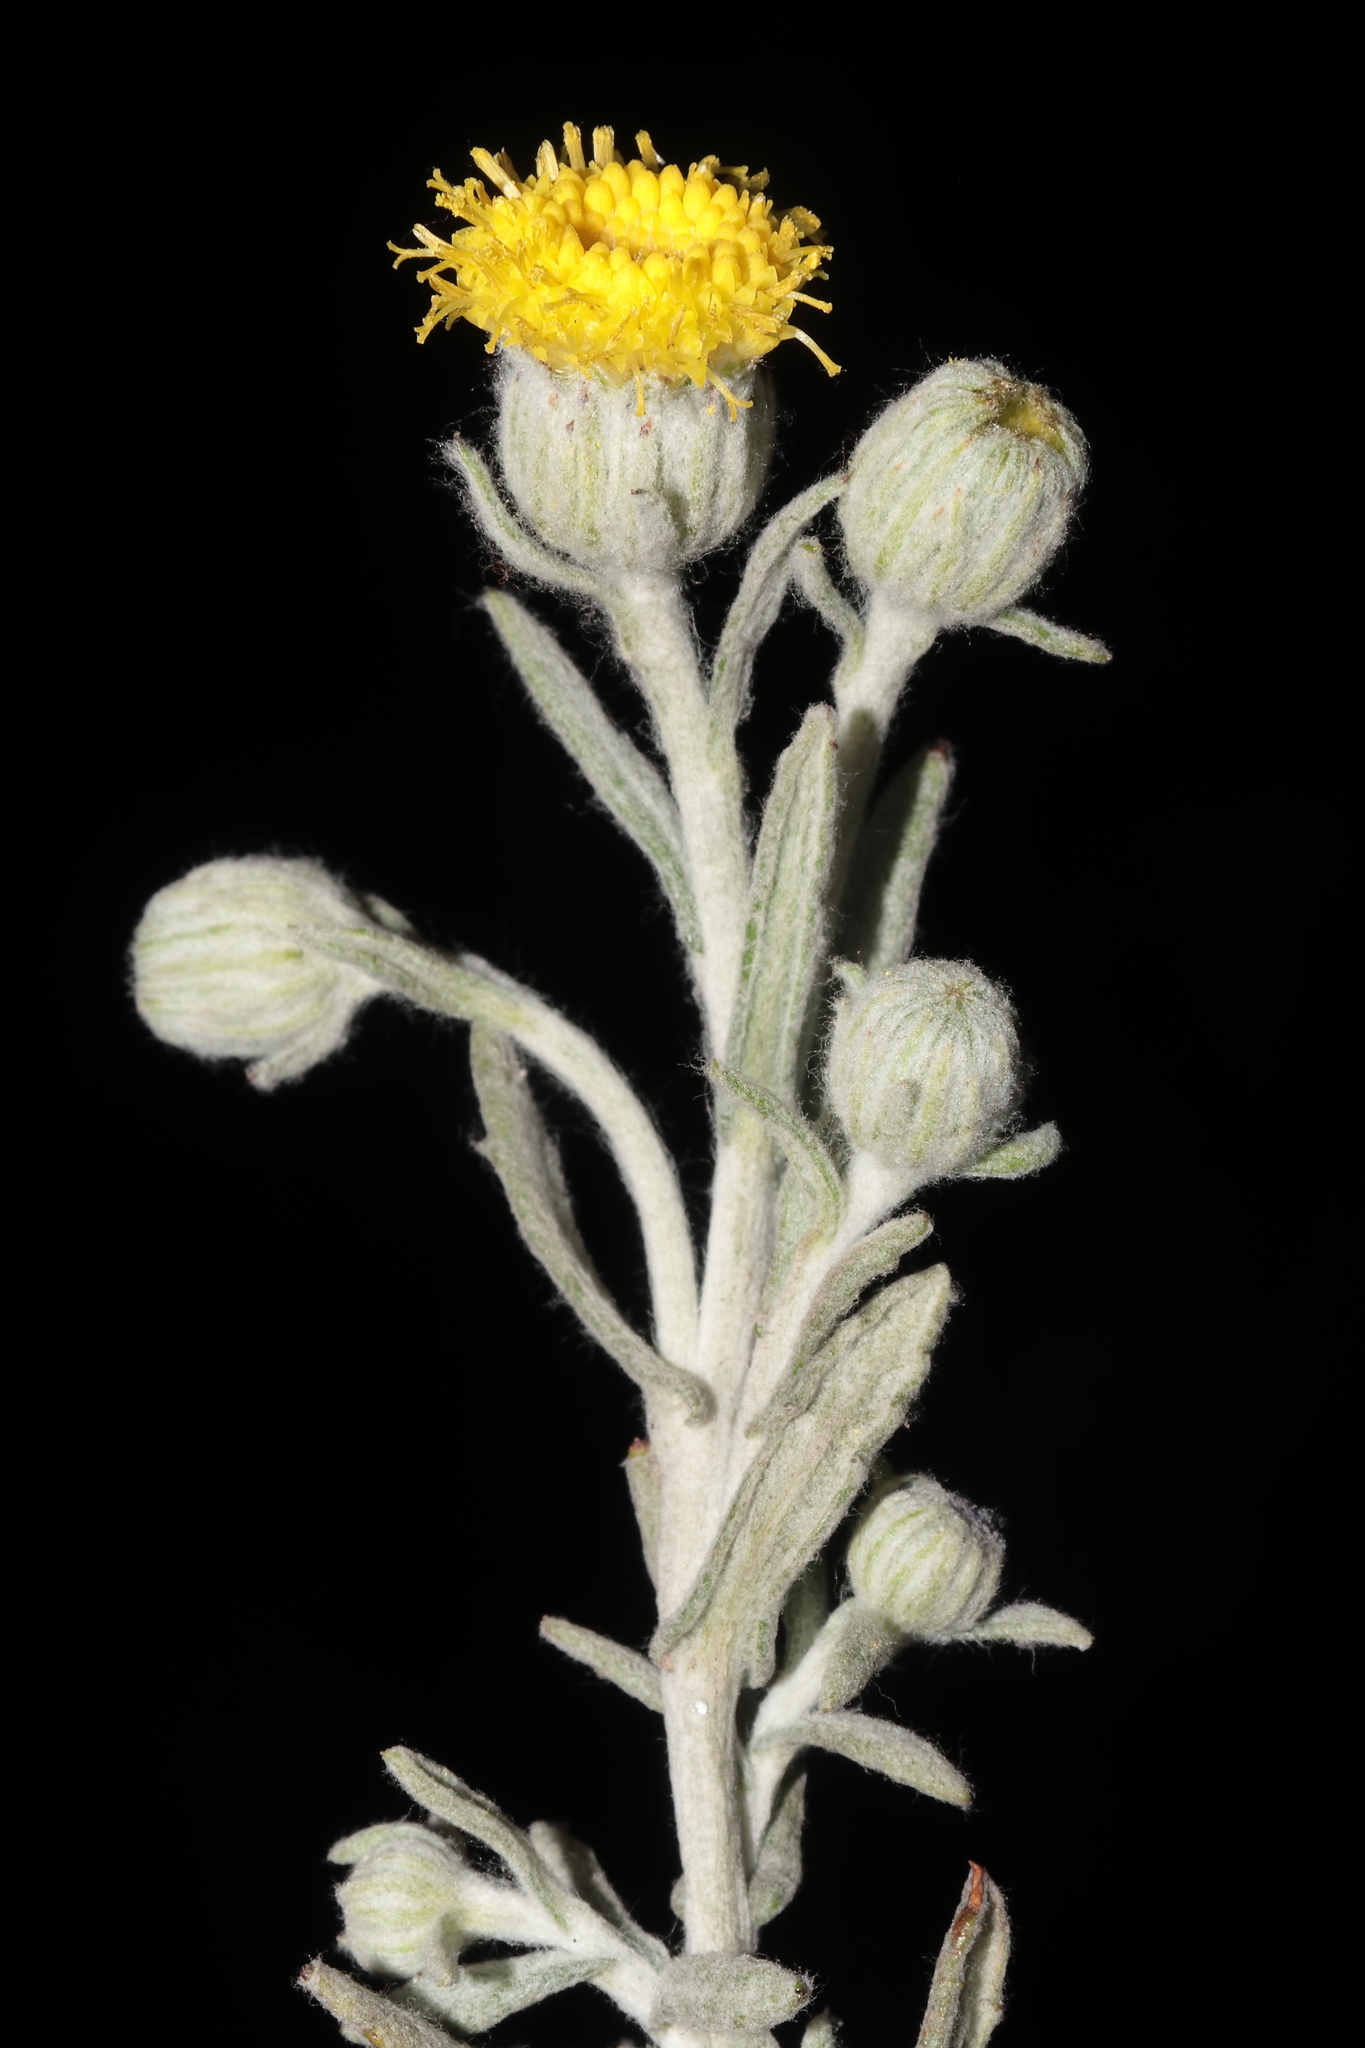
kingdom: Plantae
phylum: Tracheophyta
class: Magnoliopsida
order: Asterales
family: Asteraceae
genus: Senecio
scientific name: Senecio scrobicarioides
